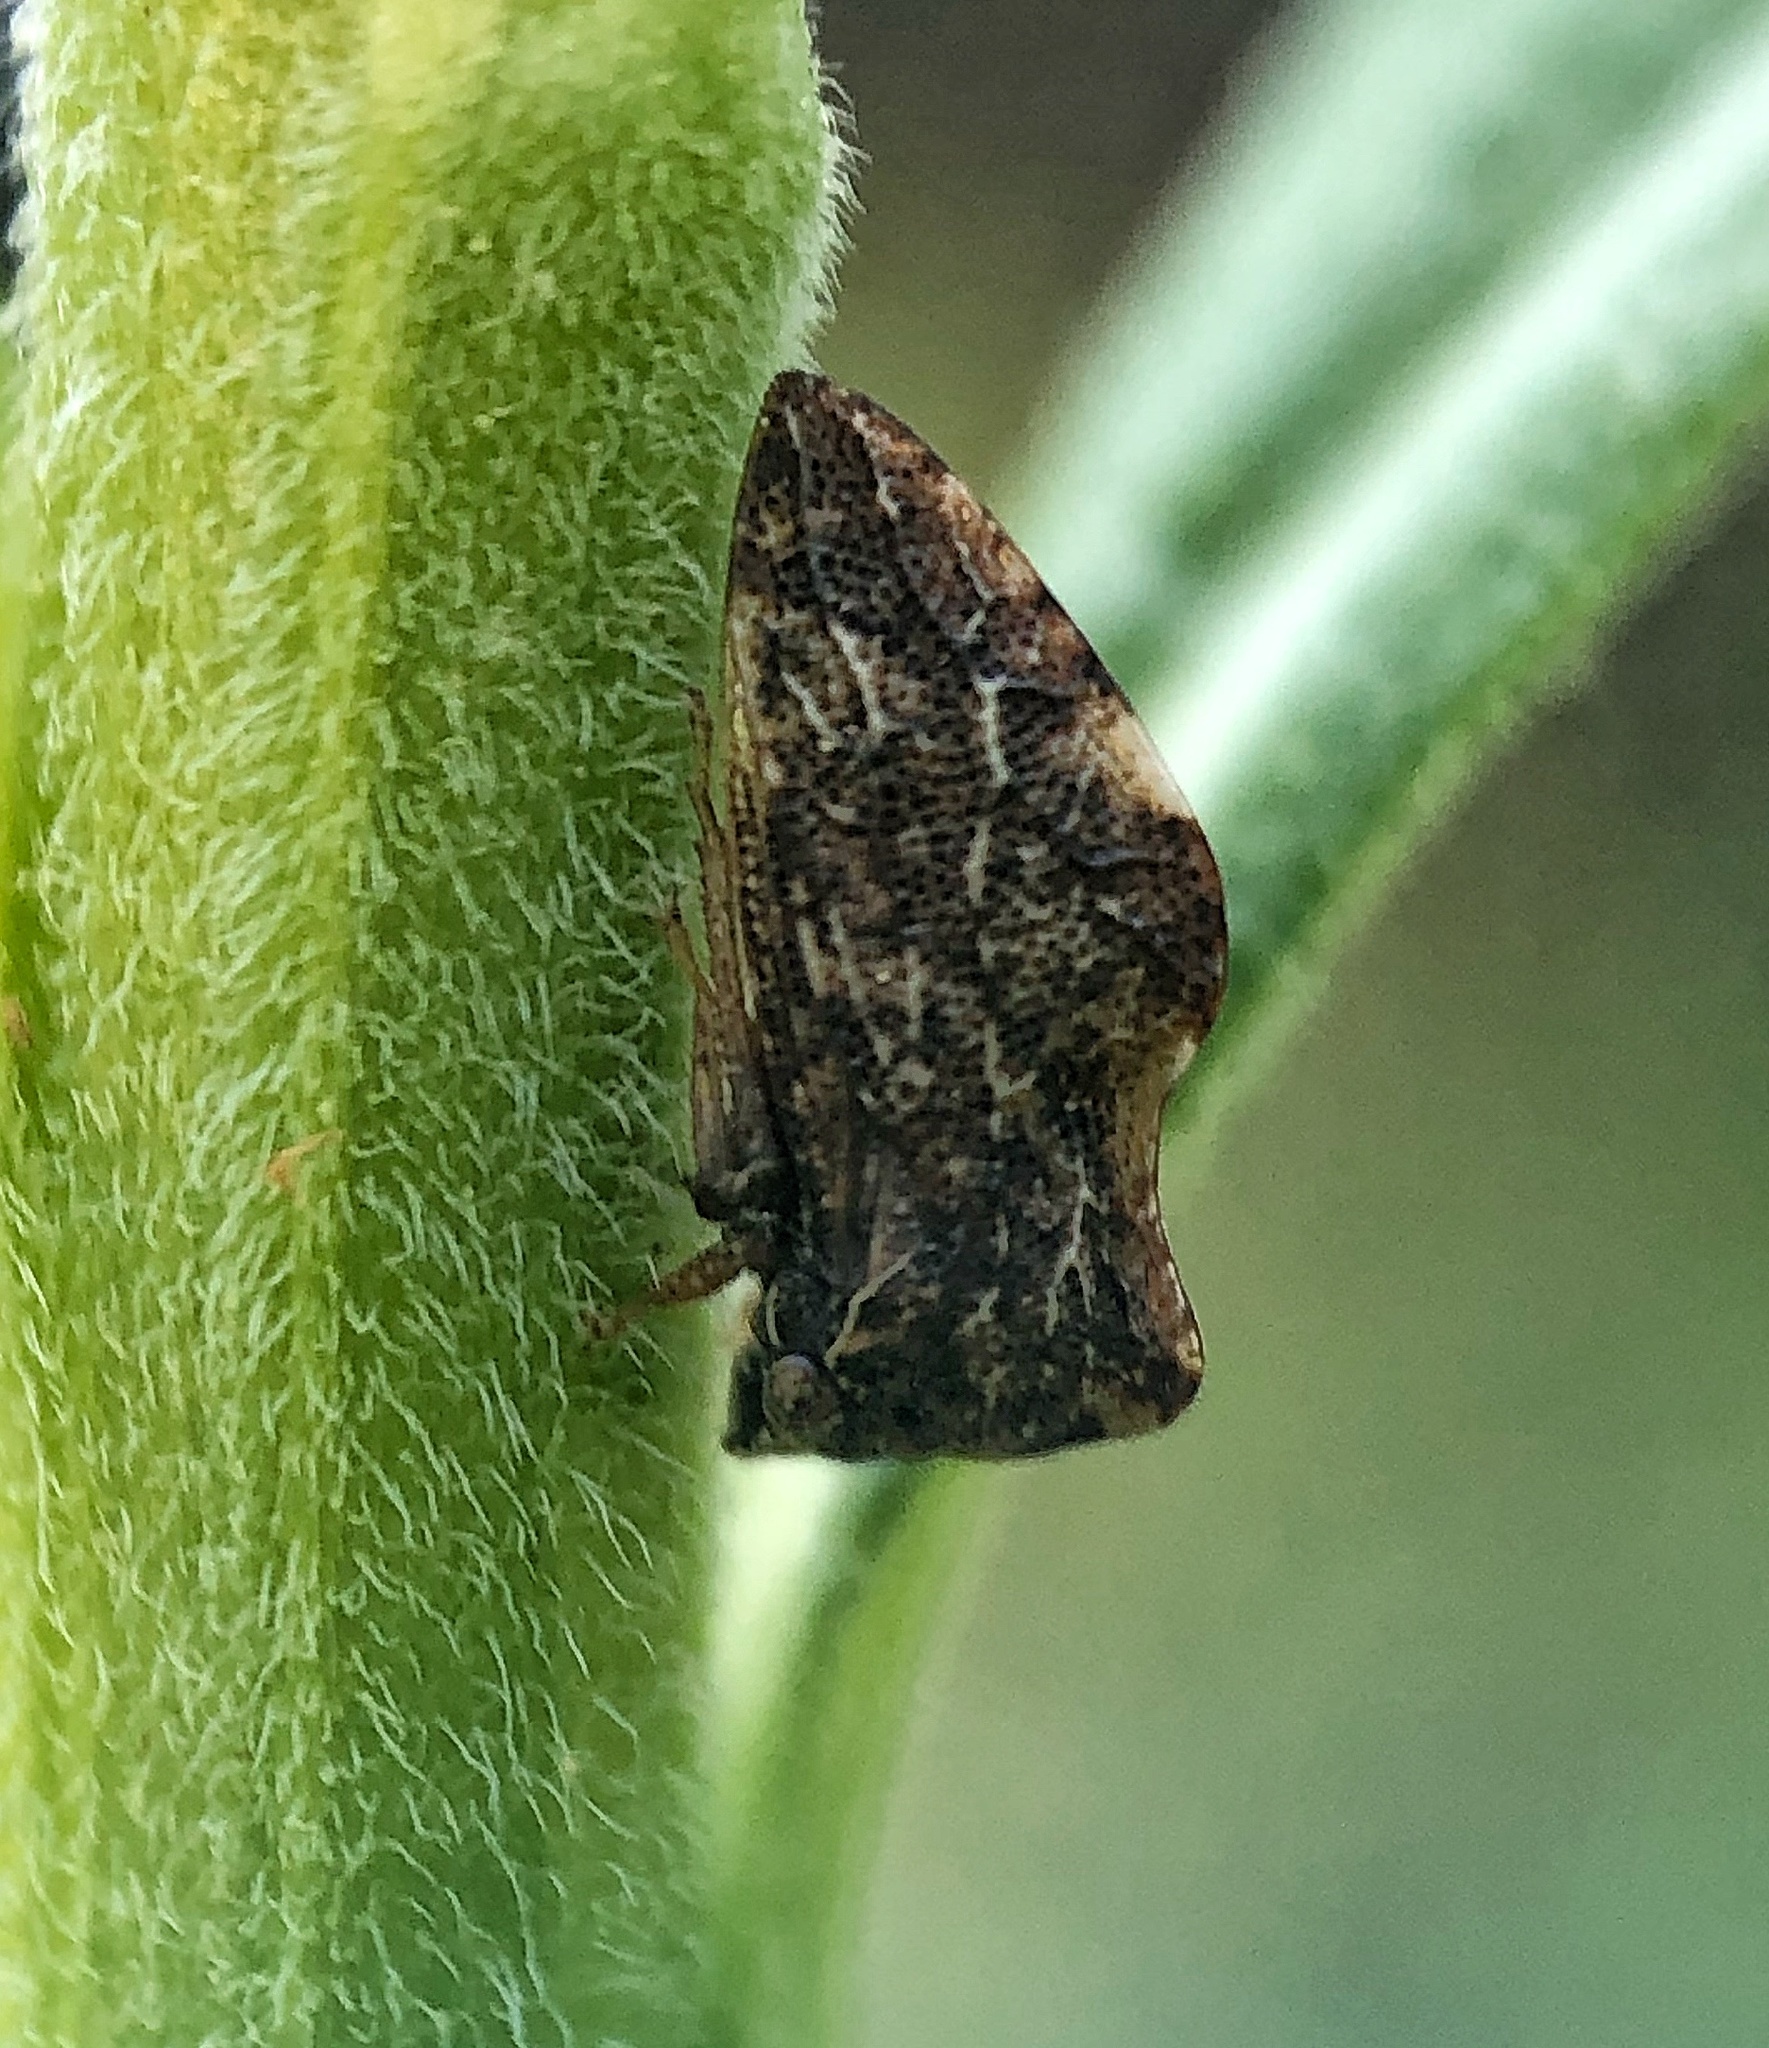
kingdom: Animalia
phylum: Arthropoda
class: Insecta
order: Hemiptera
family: Membracidae
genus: Publilia
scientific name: Publilia concava
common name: Aster treehopper
